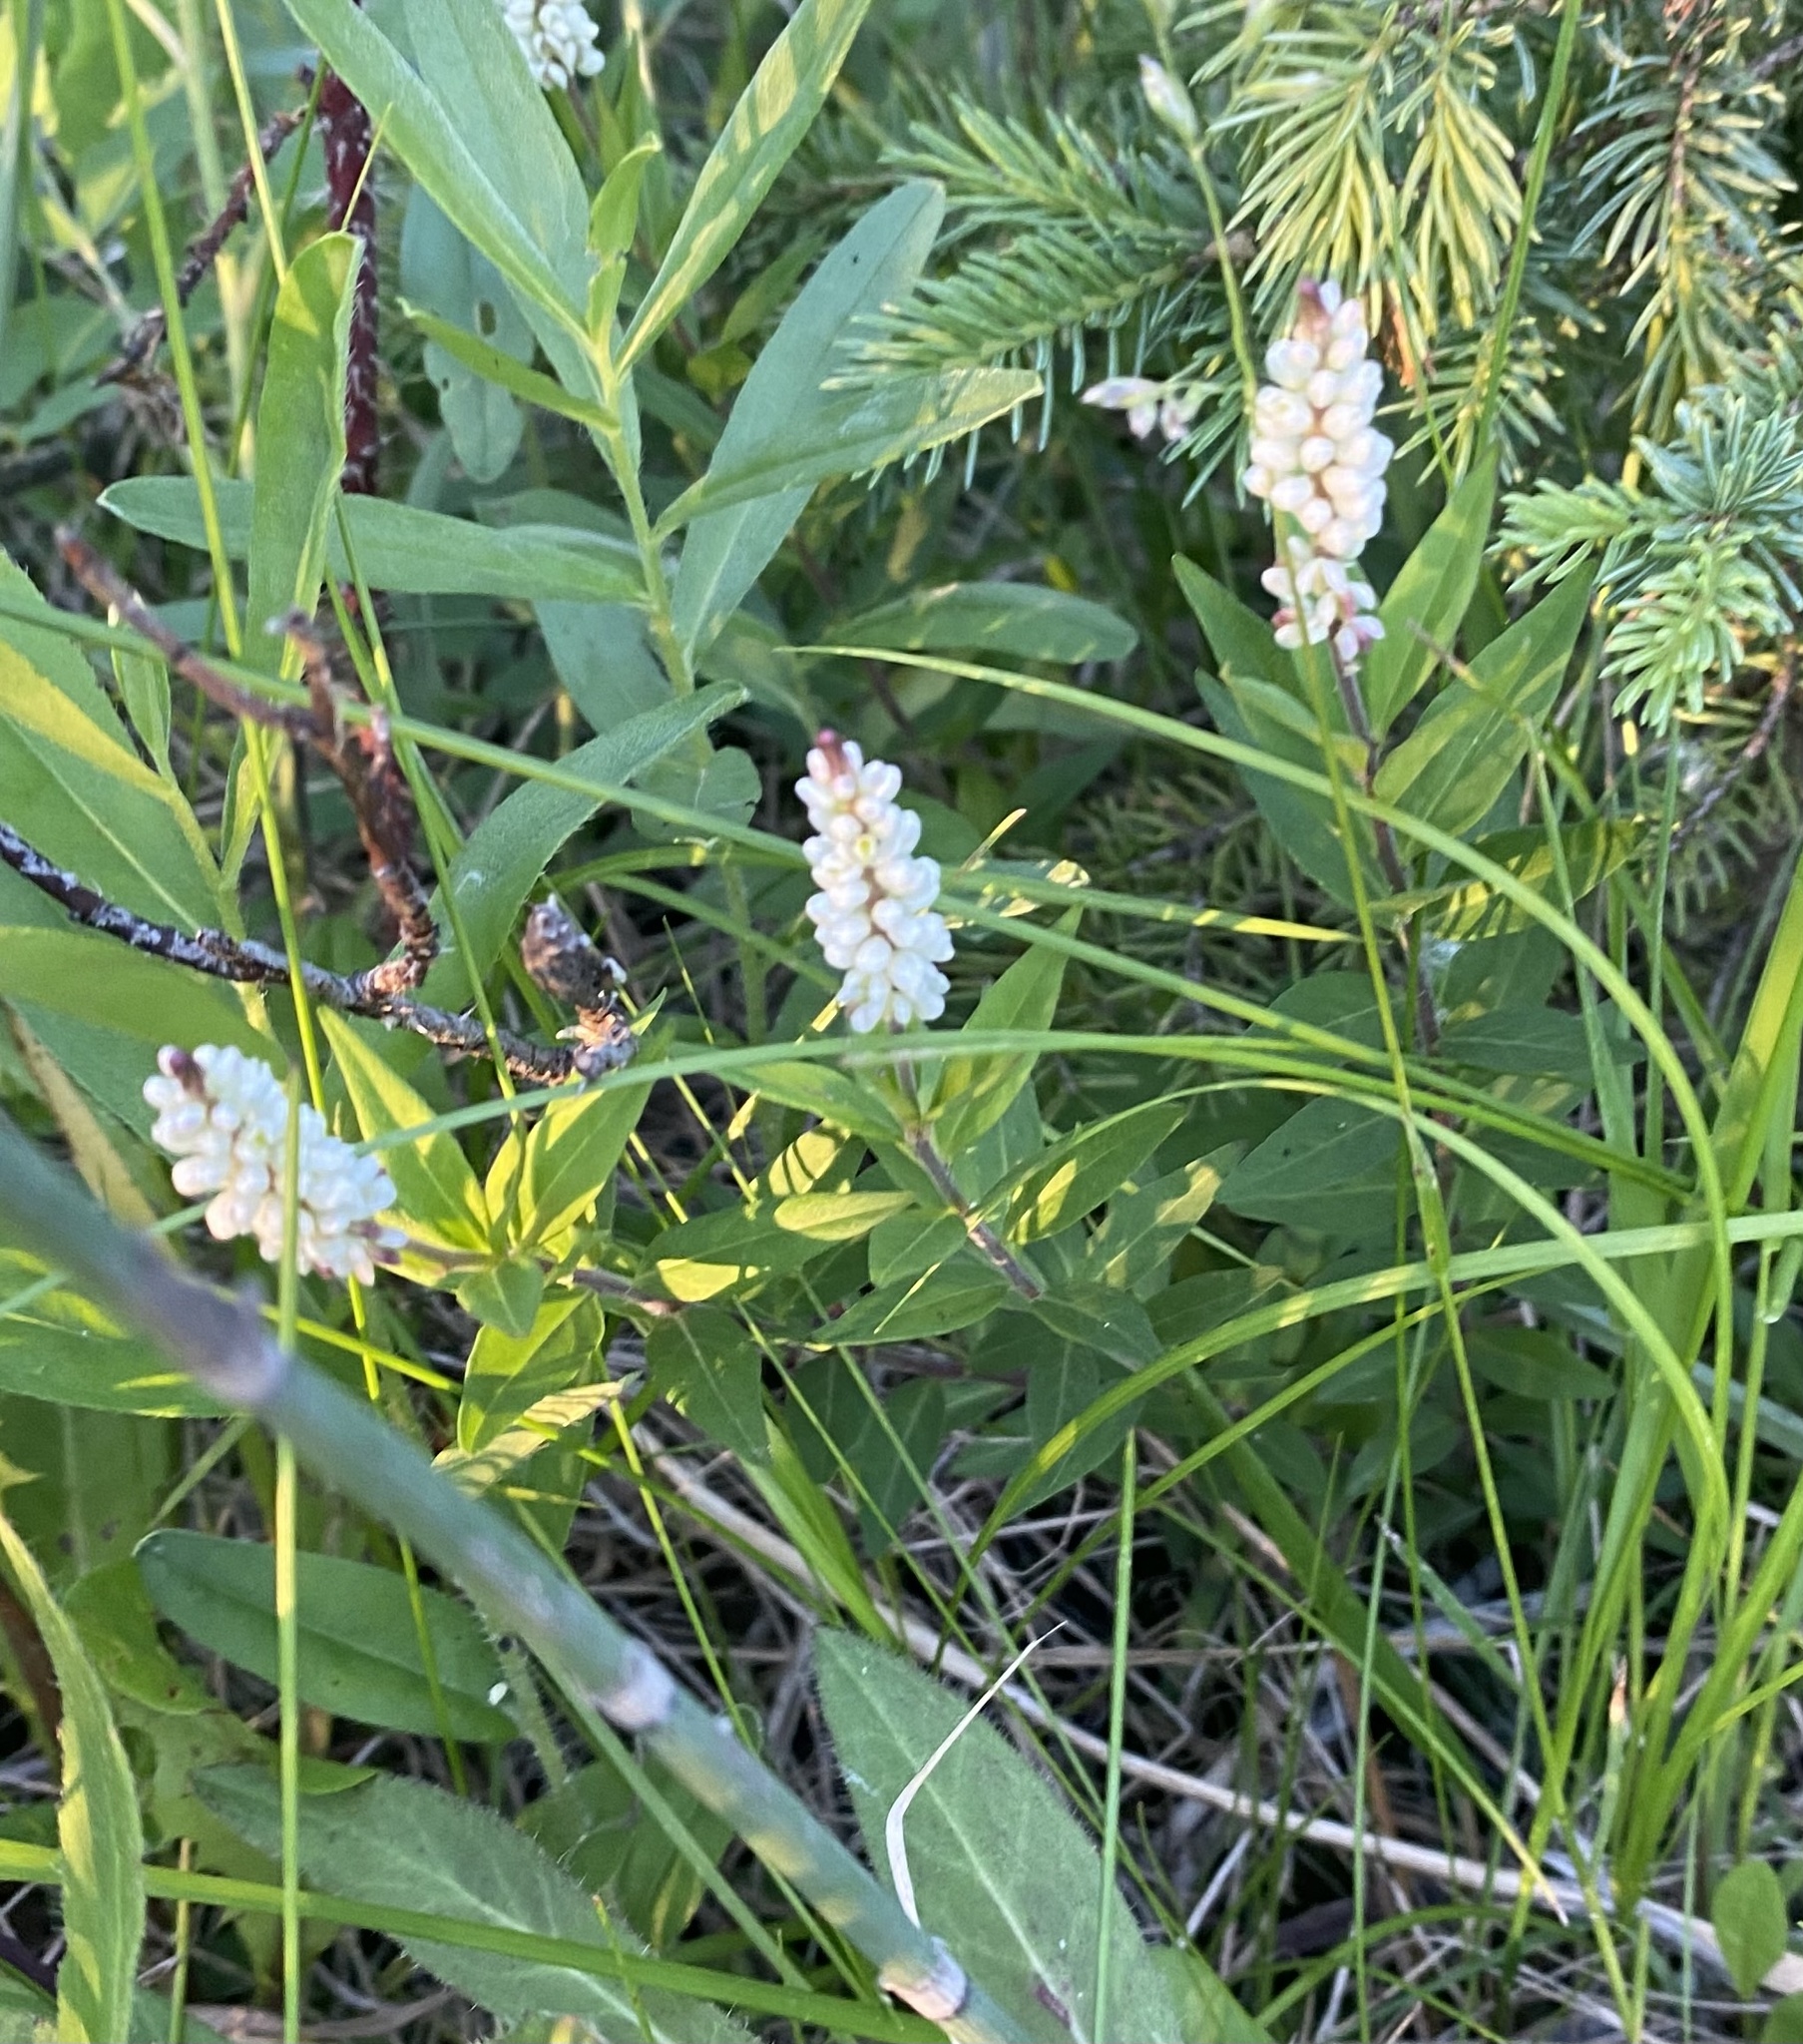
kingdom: Plantae
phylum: Tracheophyta
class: Magnoliopsida
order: Fabales
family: Polygalaceae
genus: Polygala
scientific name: Polygala senega
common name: Seneca snakeroot
